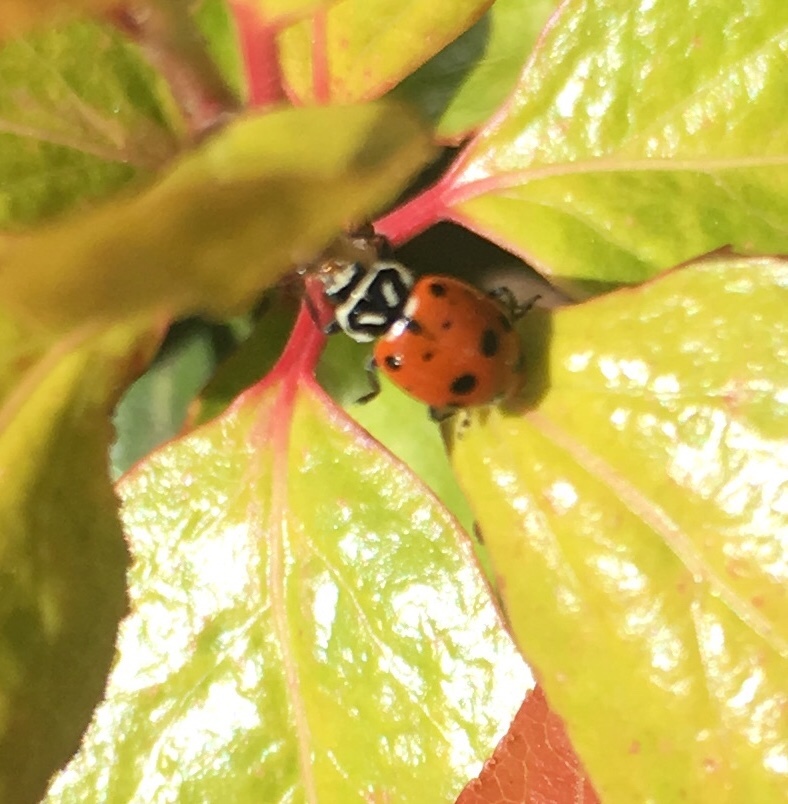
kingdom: Animalia
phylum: Arthropoda
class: Insecta
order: Coleoptera
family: Coccinellidae
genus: Hippodamia
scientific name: Hippodamia convergens
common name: Convergent lady beetle
